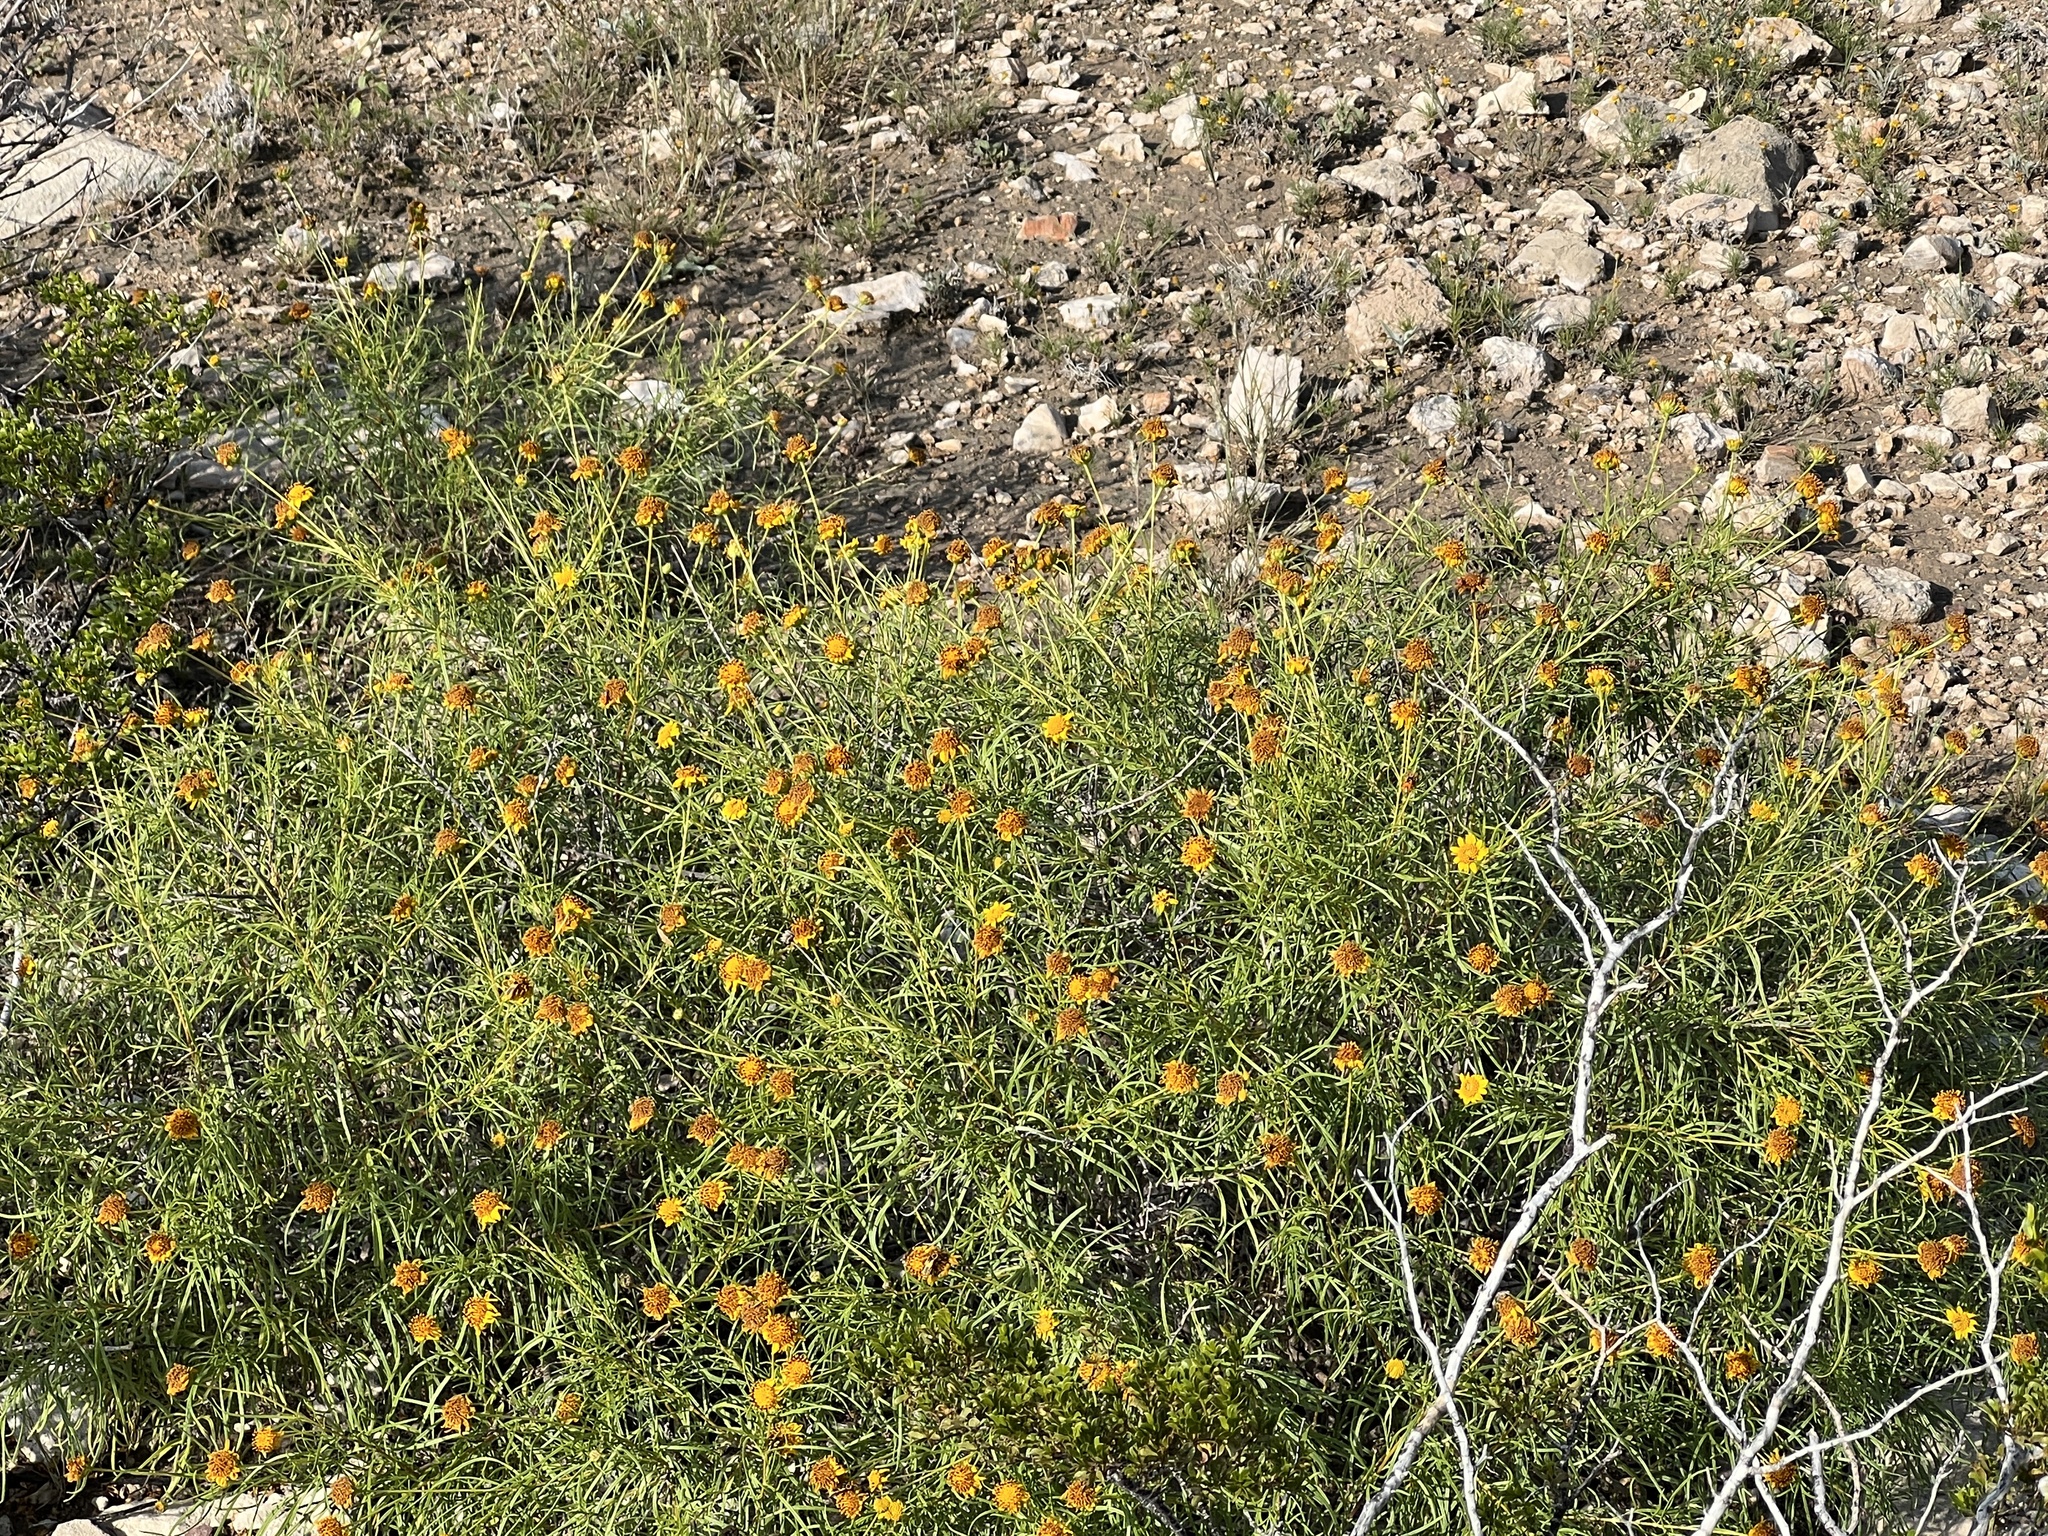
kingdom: Plantae
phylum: Tracheophyta
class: Magnoliopsida
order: Asterales
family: Asteraceae
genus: Sidneya
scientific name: Sidneya tenuifolia
